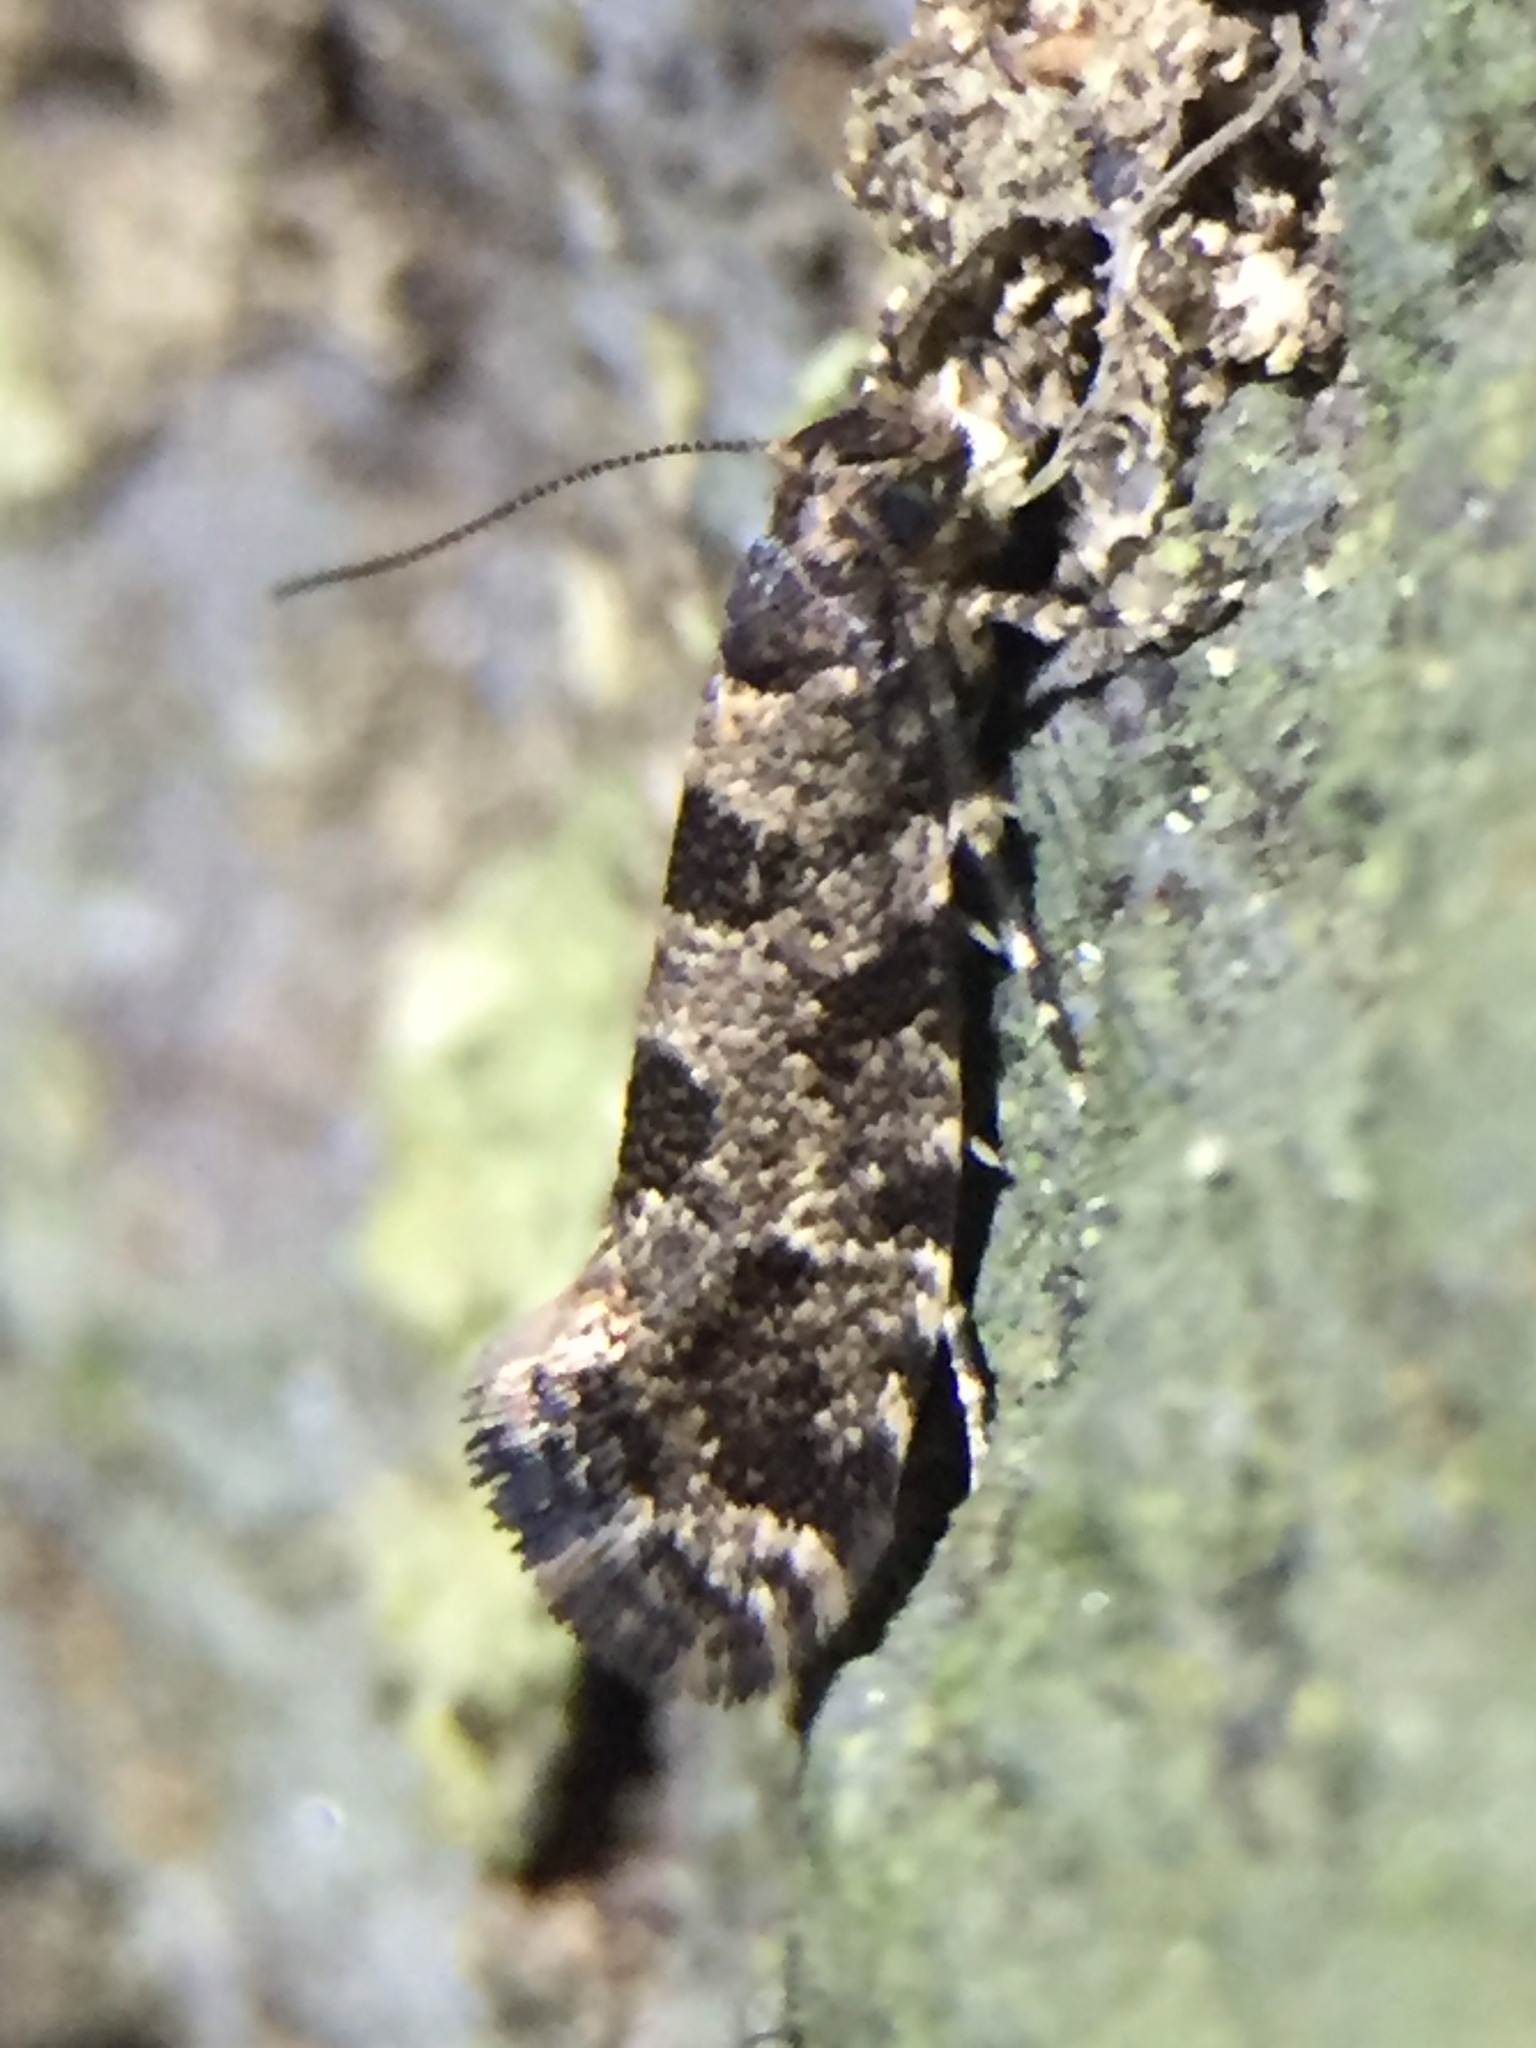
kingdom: Animalia
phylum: Arthropoda
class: Insecta
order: Lepidoptera
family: Tineidae
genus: Parochmastis
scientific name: Parochmastis hilderi
